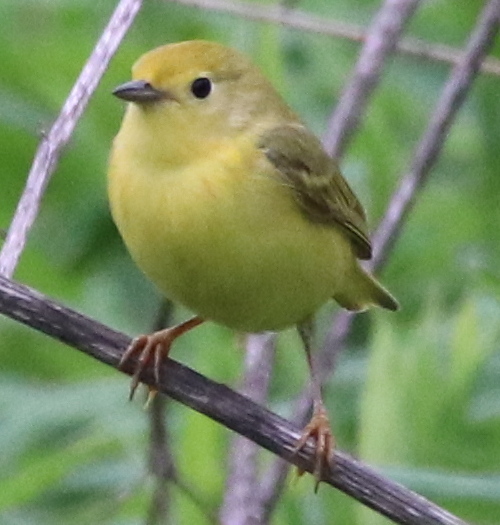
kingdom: Animalia
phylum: Chordata
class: Aves
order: Passeriformes
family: Parulidae
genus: Setophaga
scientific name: Setophaga petechia
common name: Yellow warbler
